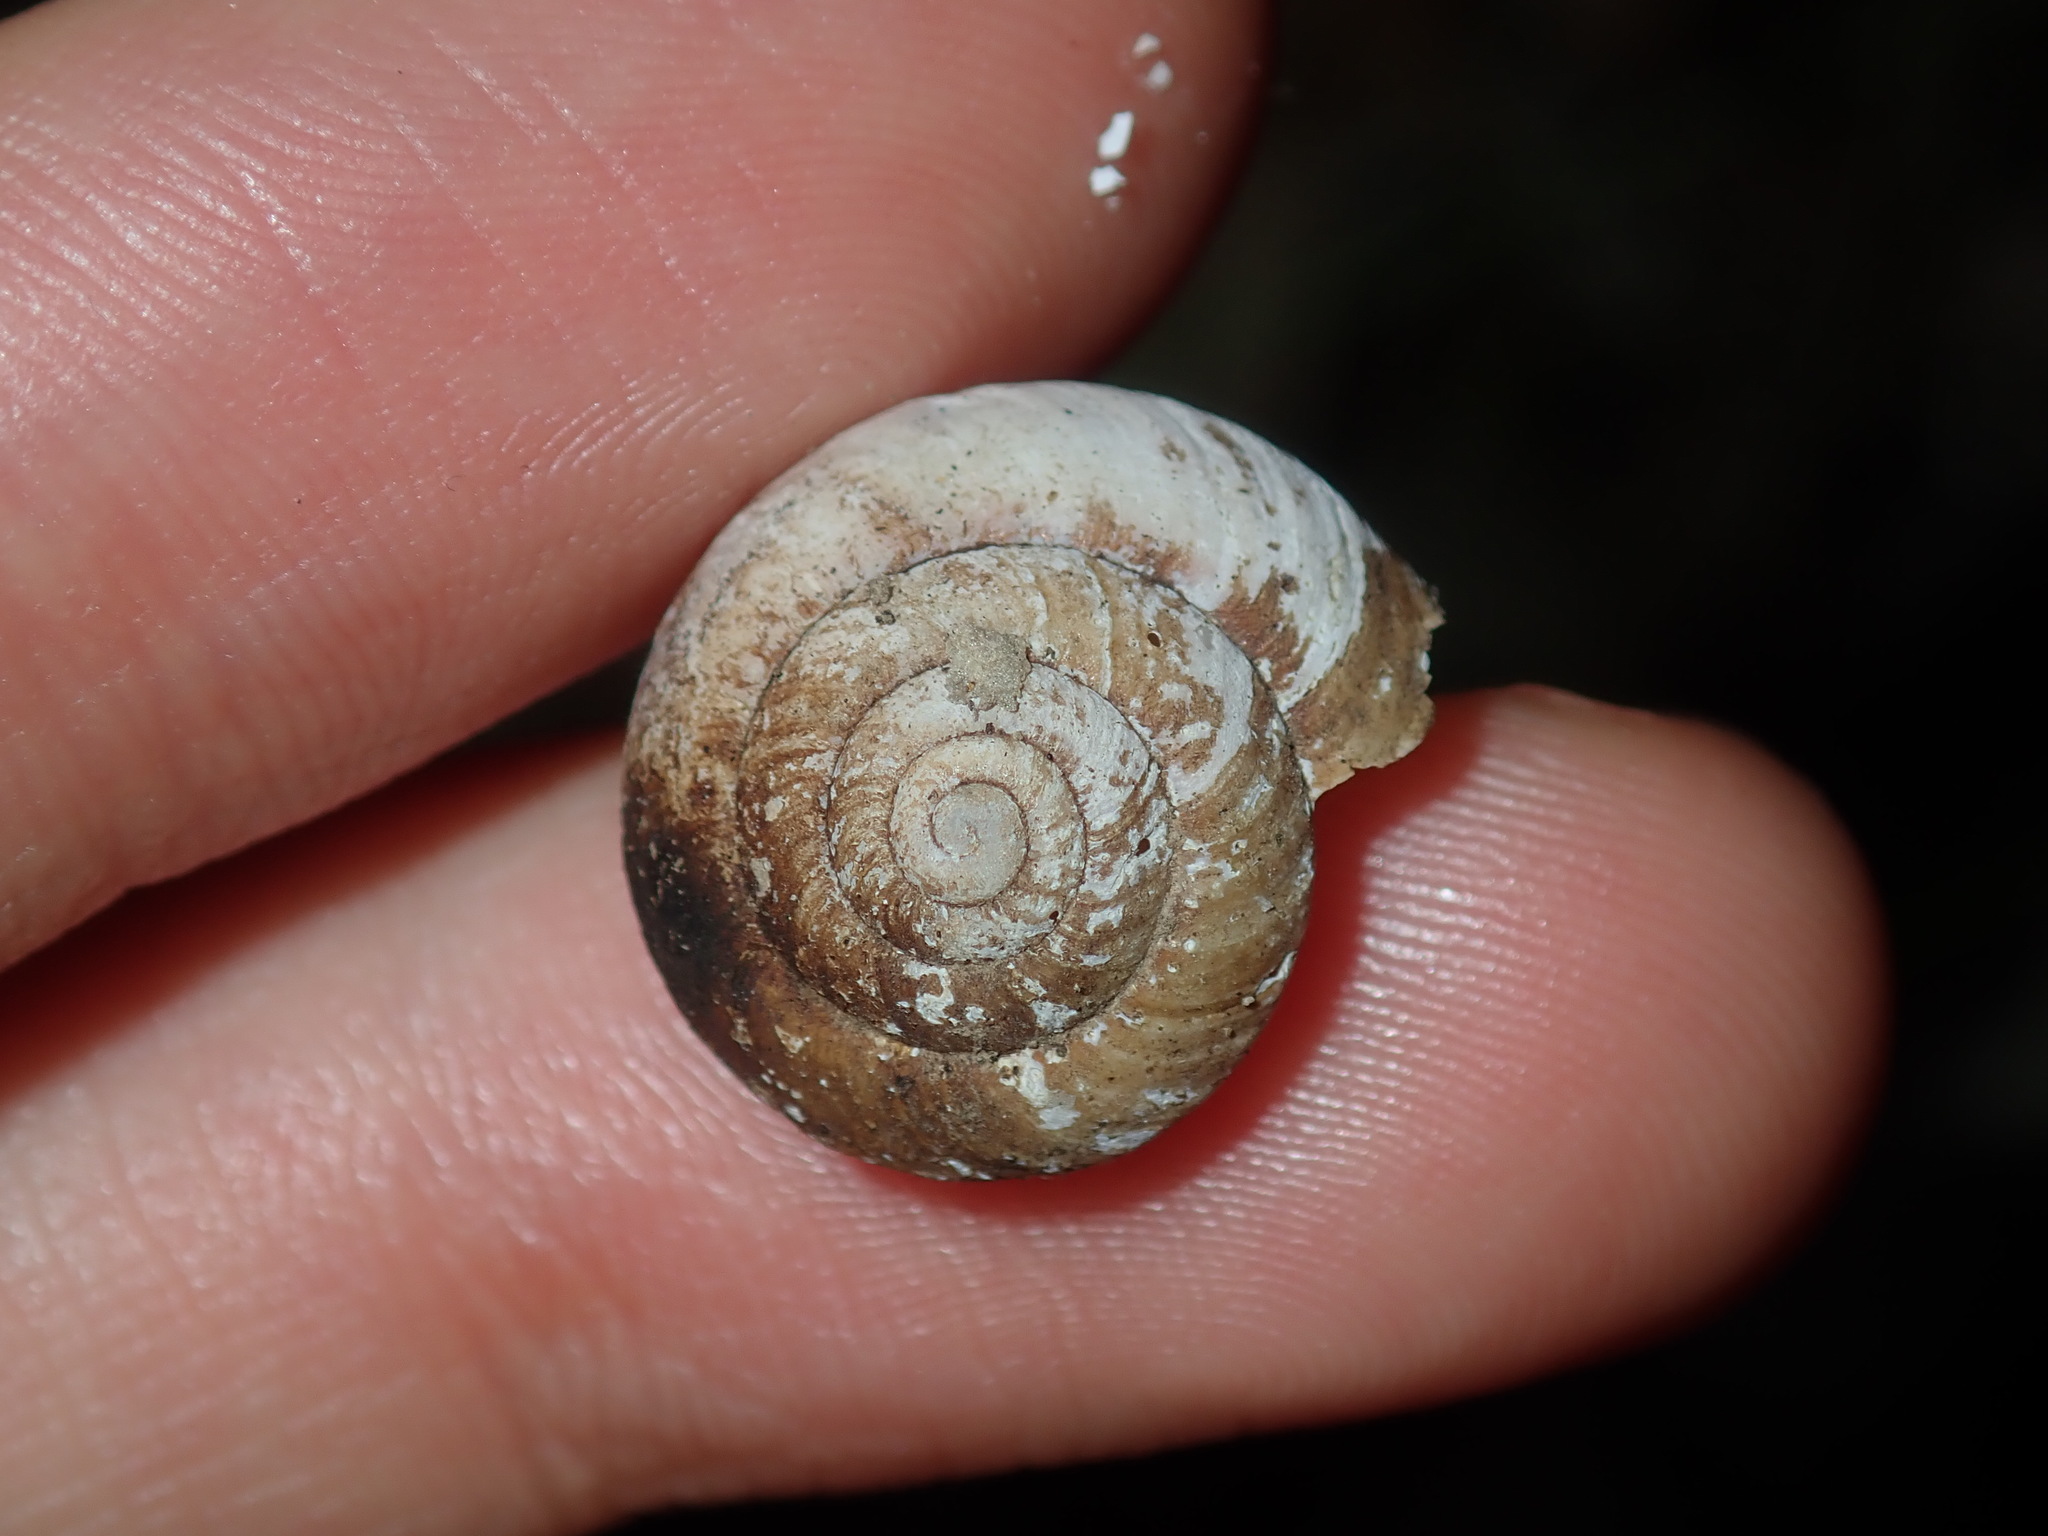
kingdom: Animalia
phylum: Mollusca
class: Gastropoda
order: Stylommatophora
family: Camaenidae
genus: Sauroconcha
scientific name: Sauroconcha sheai
